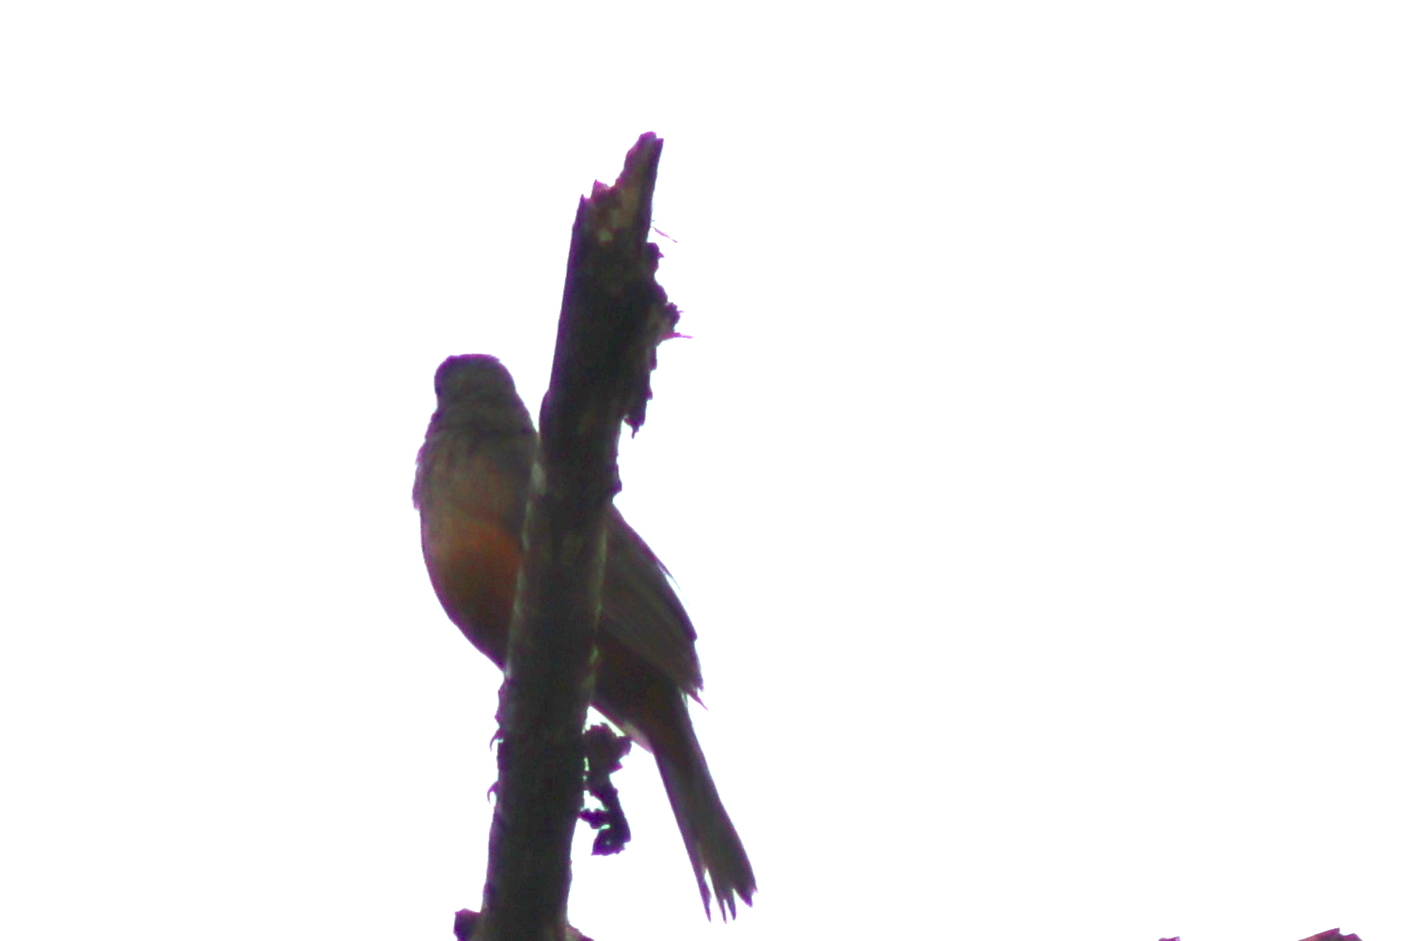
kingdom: Animalia
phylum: Chordata
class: Aves
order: Passeriformes
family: Turdidae
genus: Turdus
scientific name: Turdus rufiventris
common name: Rufous-bellied thrush
